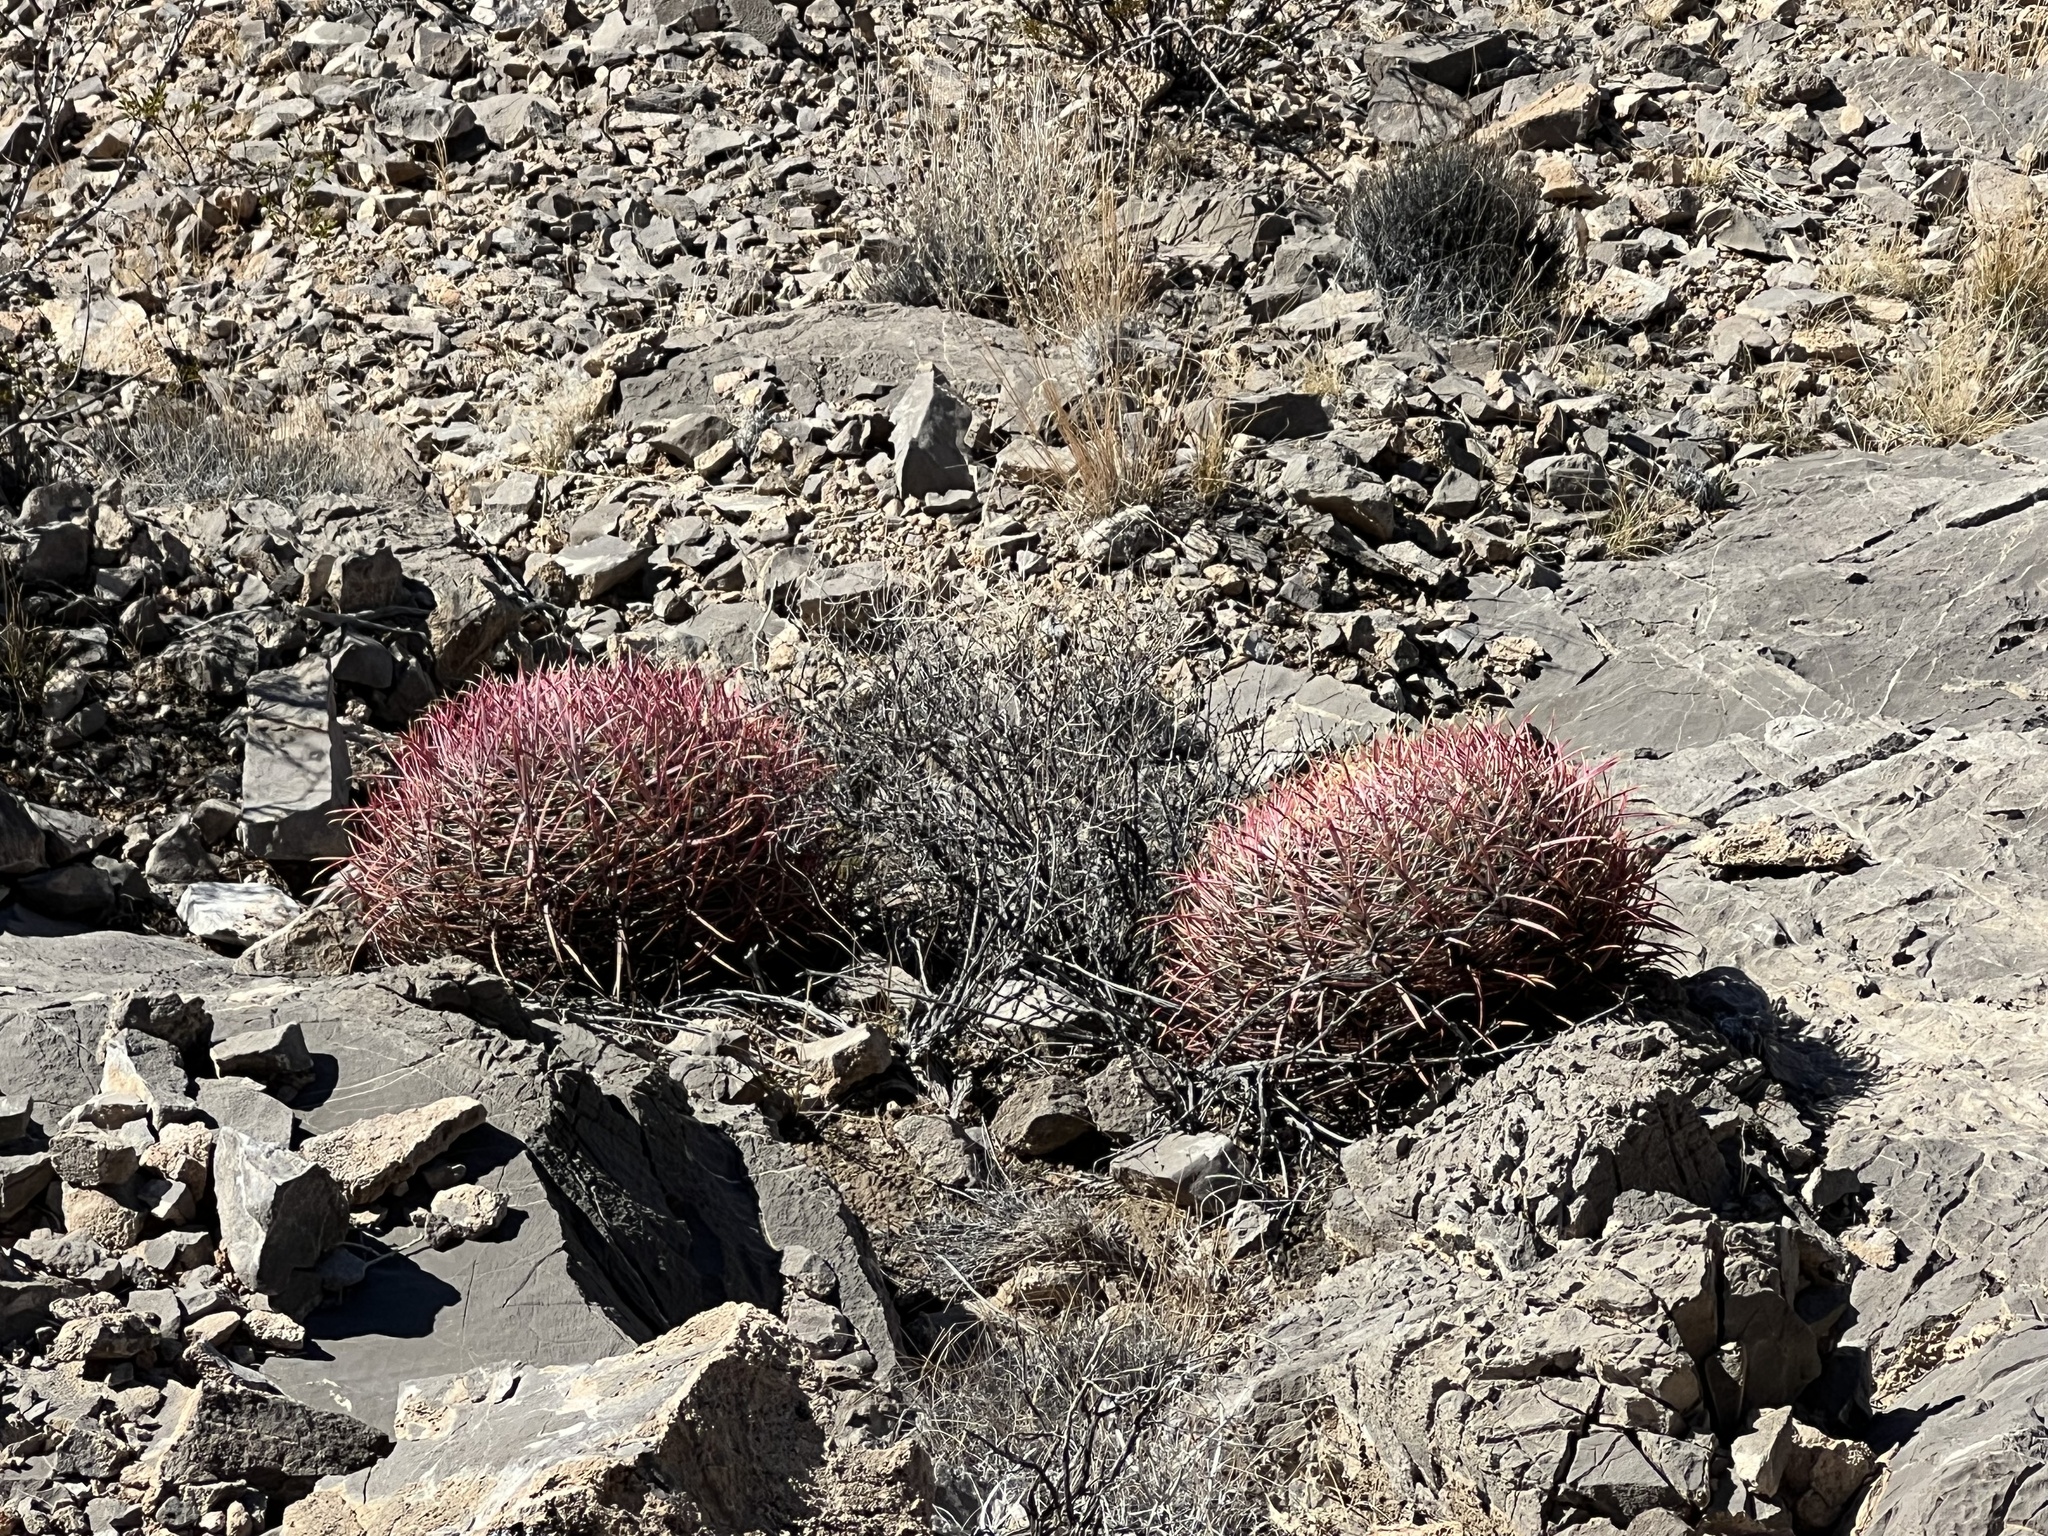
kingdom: Plantae
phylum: Tracheophyta
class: Magnoliopsida
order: Caryophyllales
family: Cactaceae
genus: Ferocactus
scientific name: Ferocactus cylindraceus
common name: California barrel cactus
